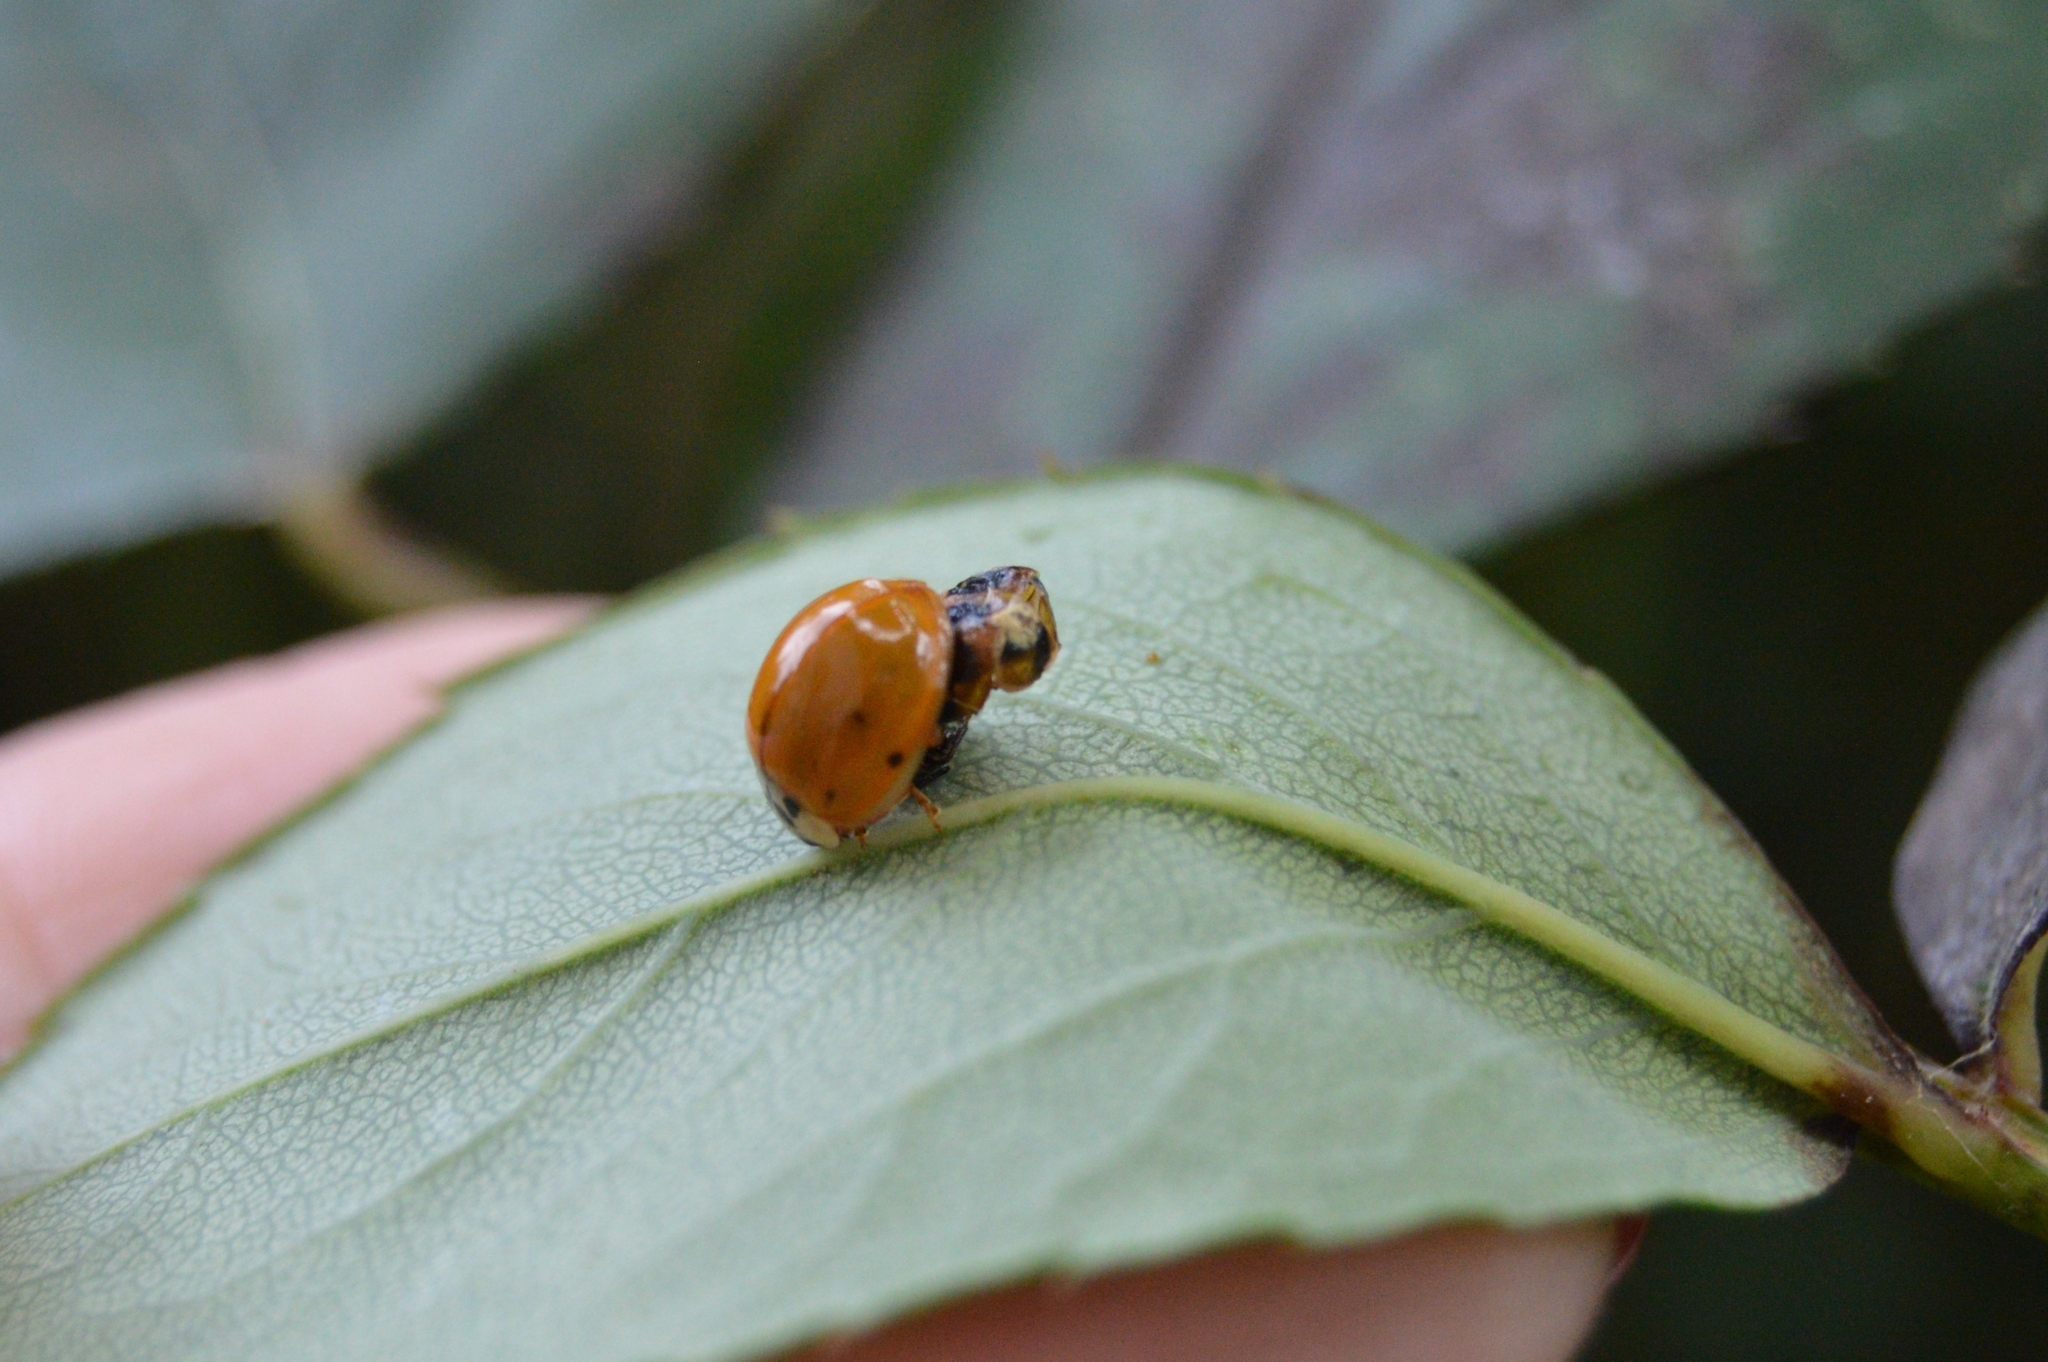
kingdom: Animalia
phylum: Arthropoda
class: Insecta
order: Coleoptera
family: Coccinellidae
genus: Harmonia
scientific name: Harmonia axyridis
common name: Harlequin ladybird
